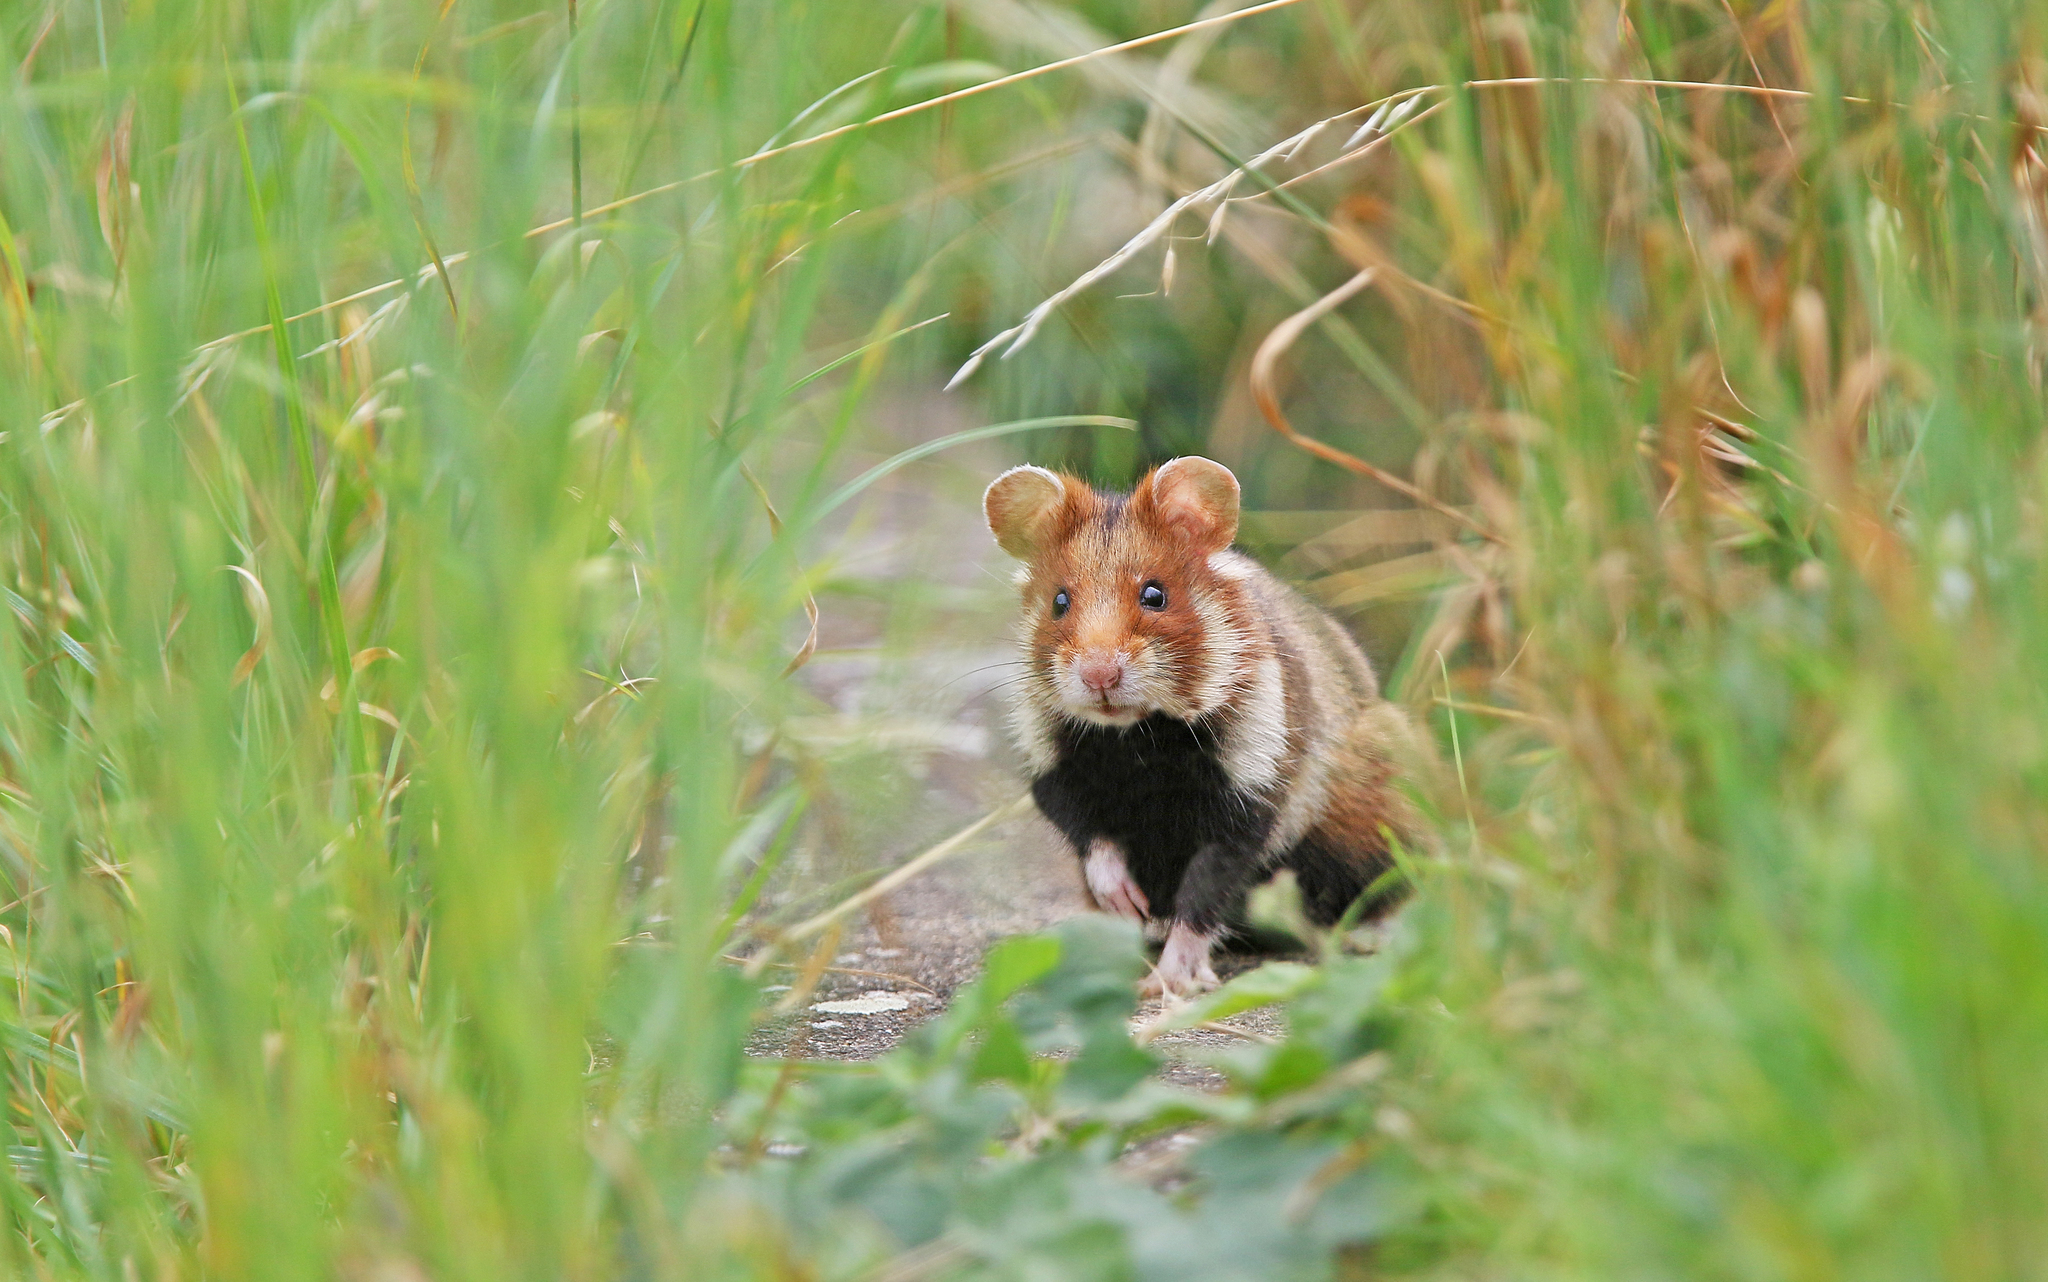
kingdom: Animalia
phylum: Chordata
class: Mammalia
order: Rodentia
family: Cricetidae
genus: Cricetus
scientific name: Cricetus cricetus
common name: Common hamster
